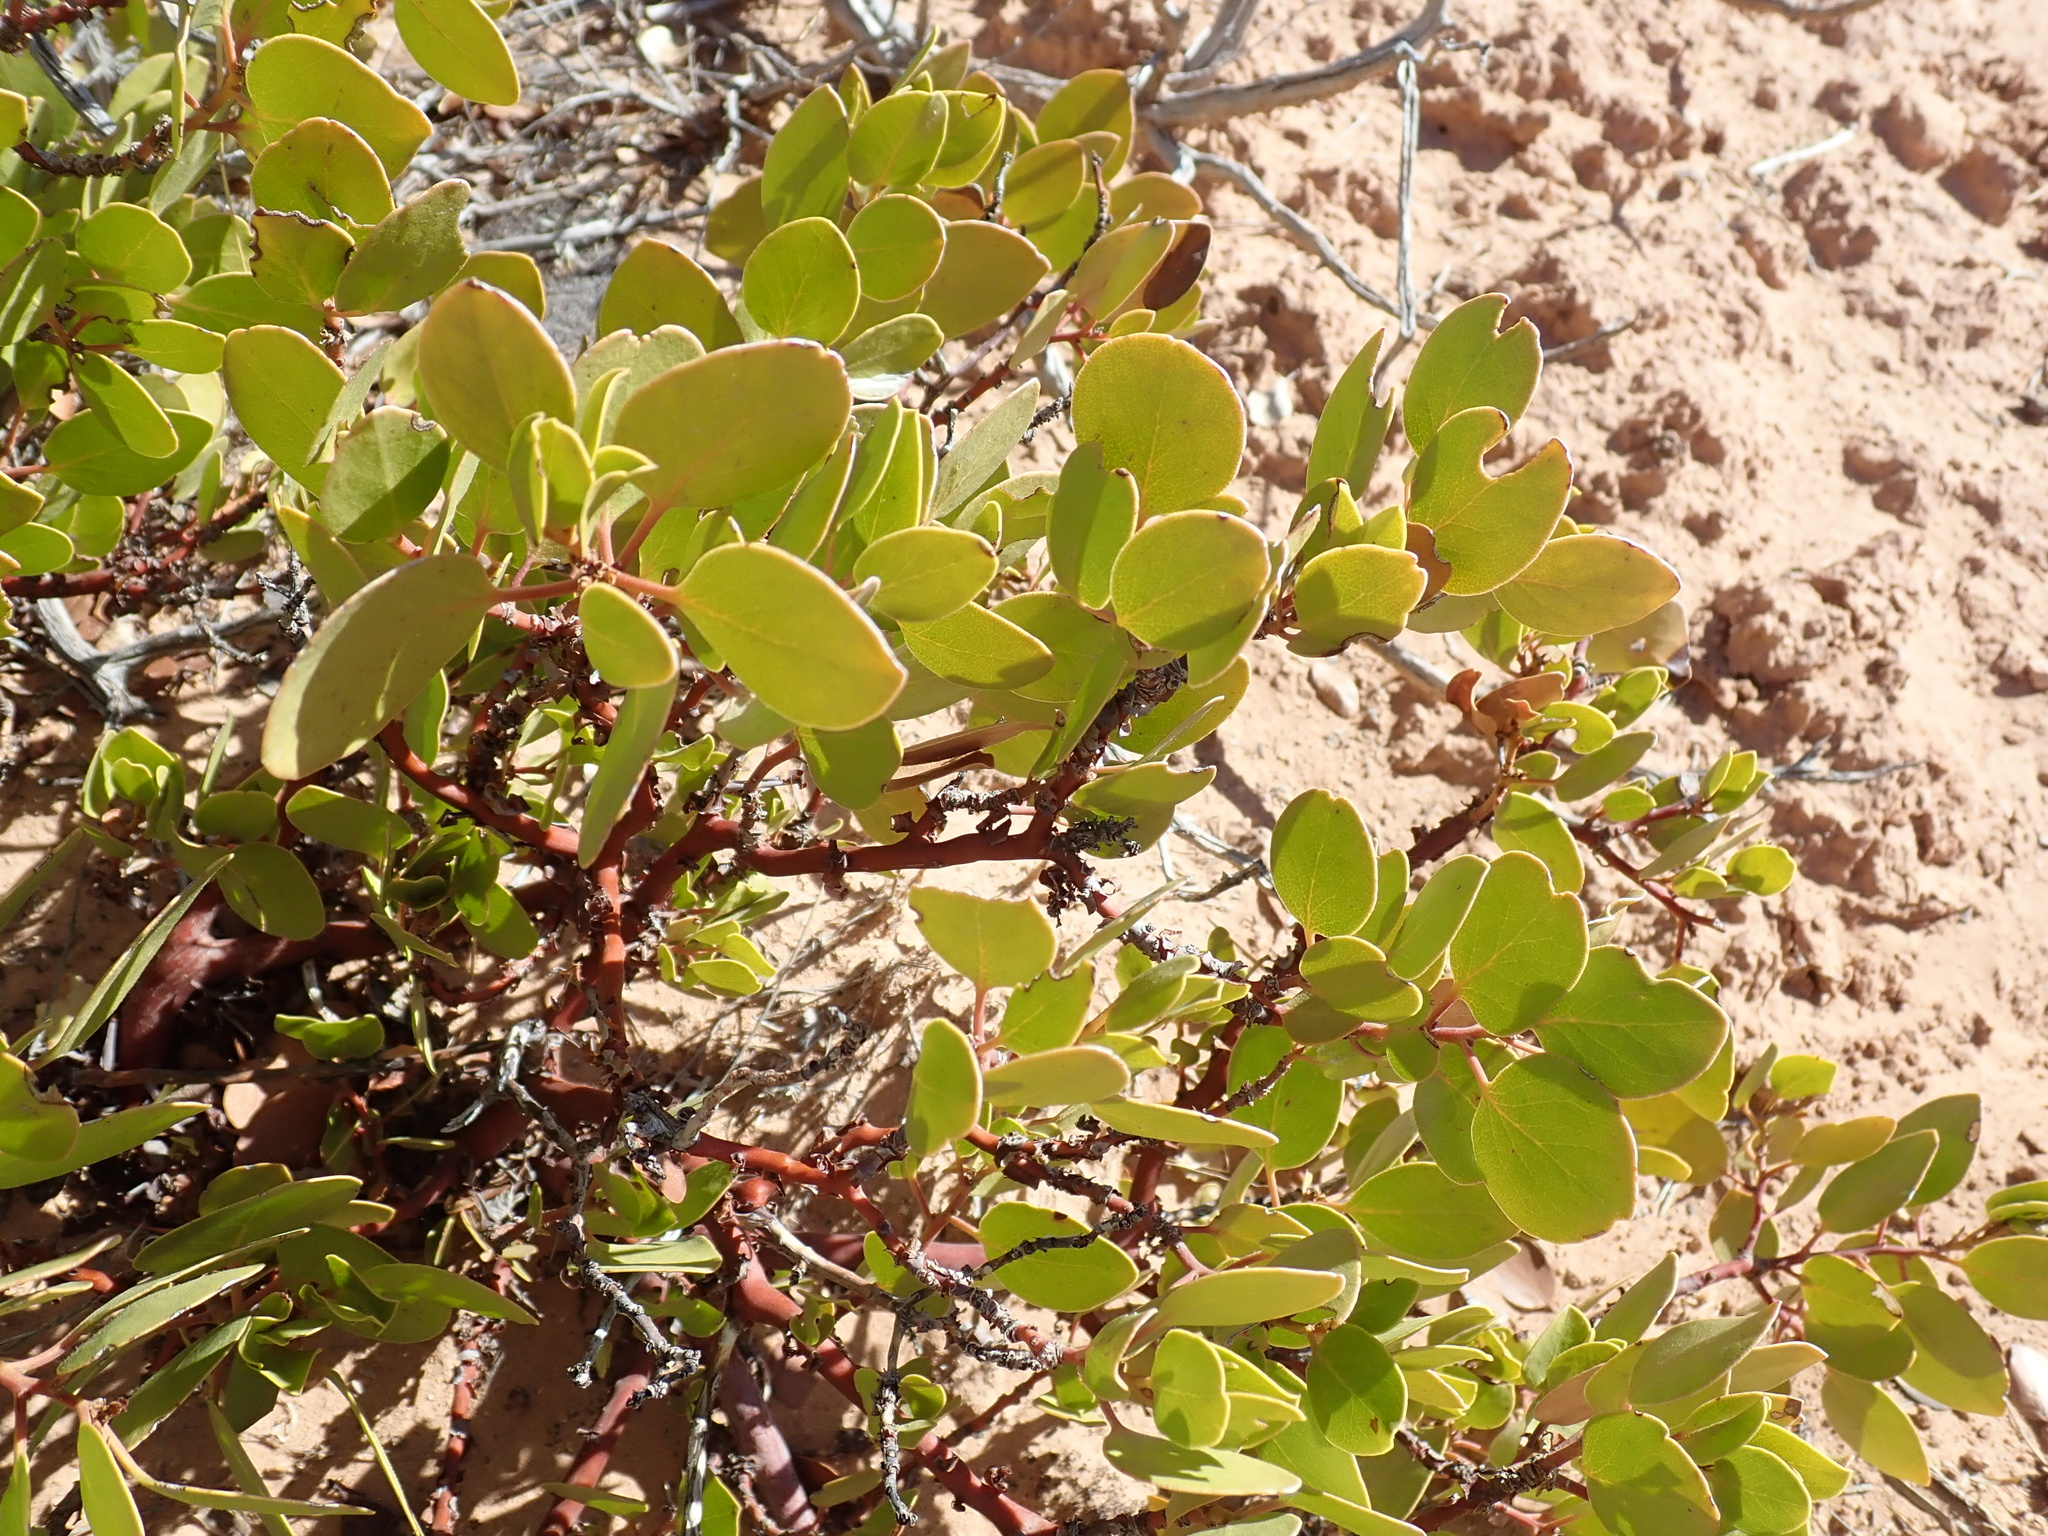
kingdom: Plantae
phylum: Tracheophyta
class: Magnoliopsida
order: Ericales
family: Ericaceae
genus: Arctostaphylos
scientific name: Arctostaphylos patula
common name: Green-leaf manzanita
